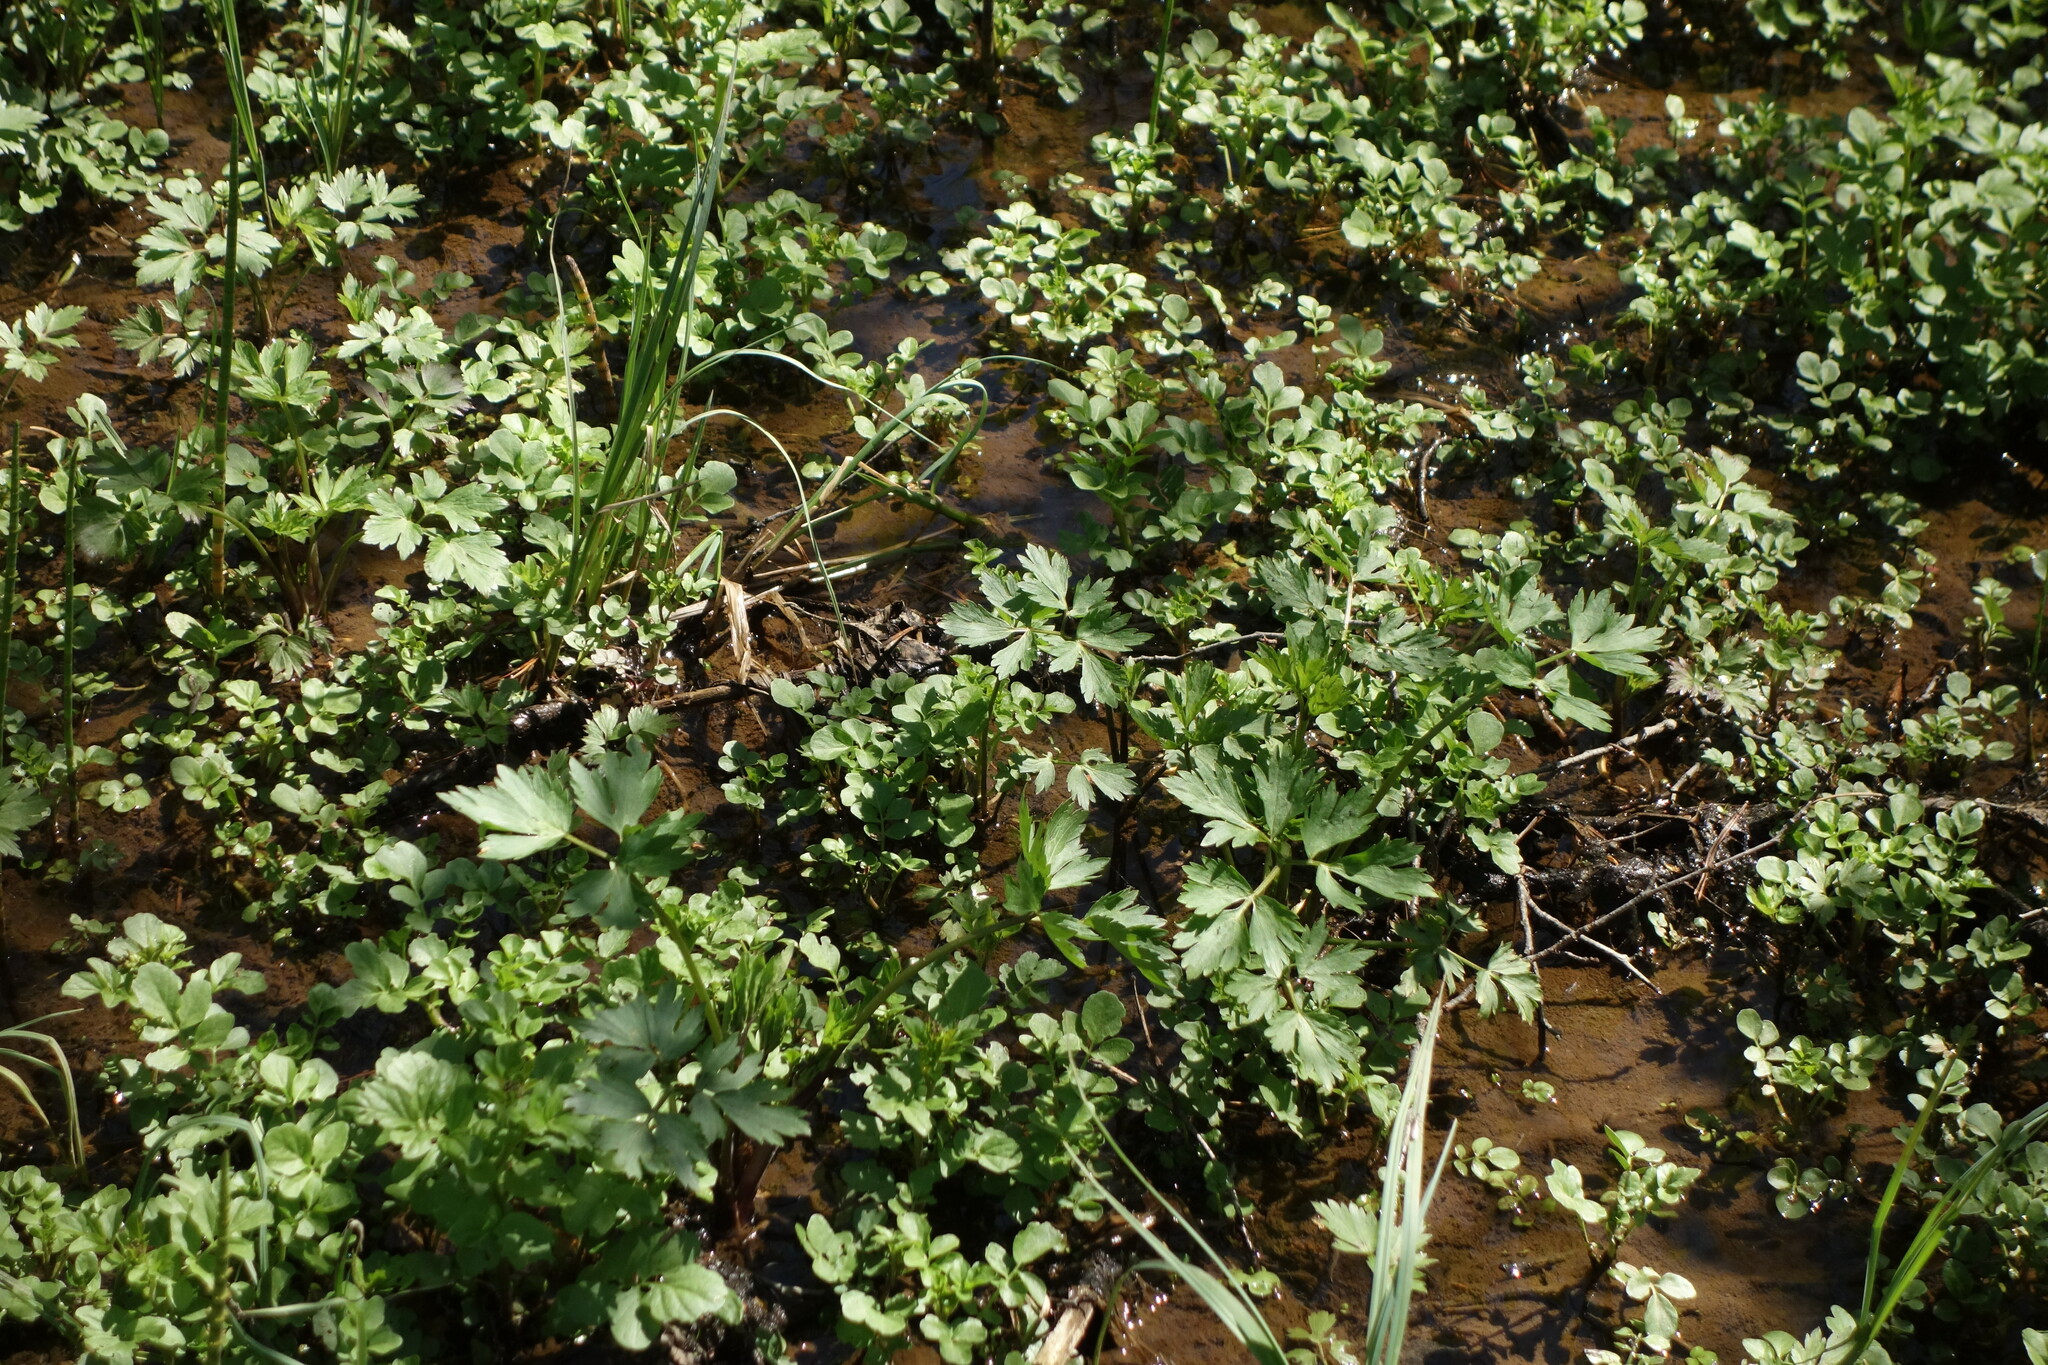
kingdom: Plantae
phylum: Tracheophyta
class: Magnoliopsida
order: Ranunculales
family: Ranunculaceae
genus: Ranunculus
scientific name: Ranunculus repens
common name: Creeping buttercup
